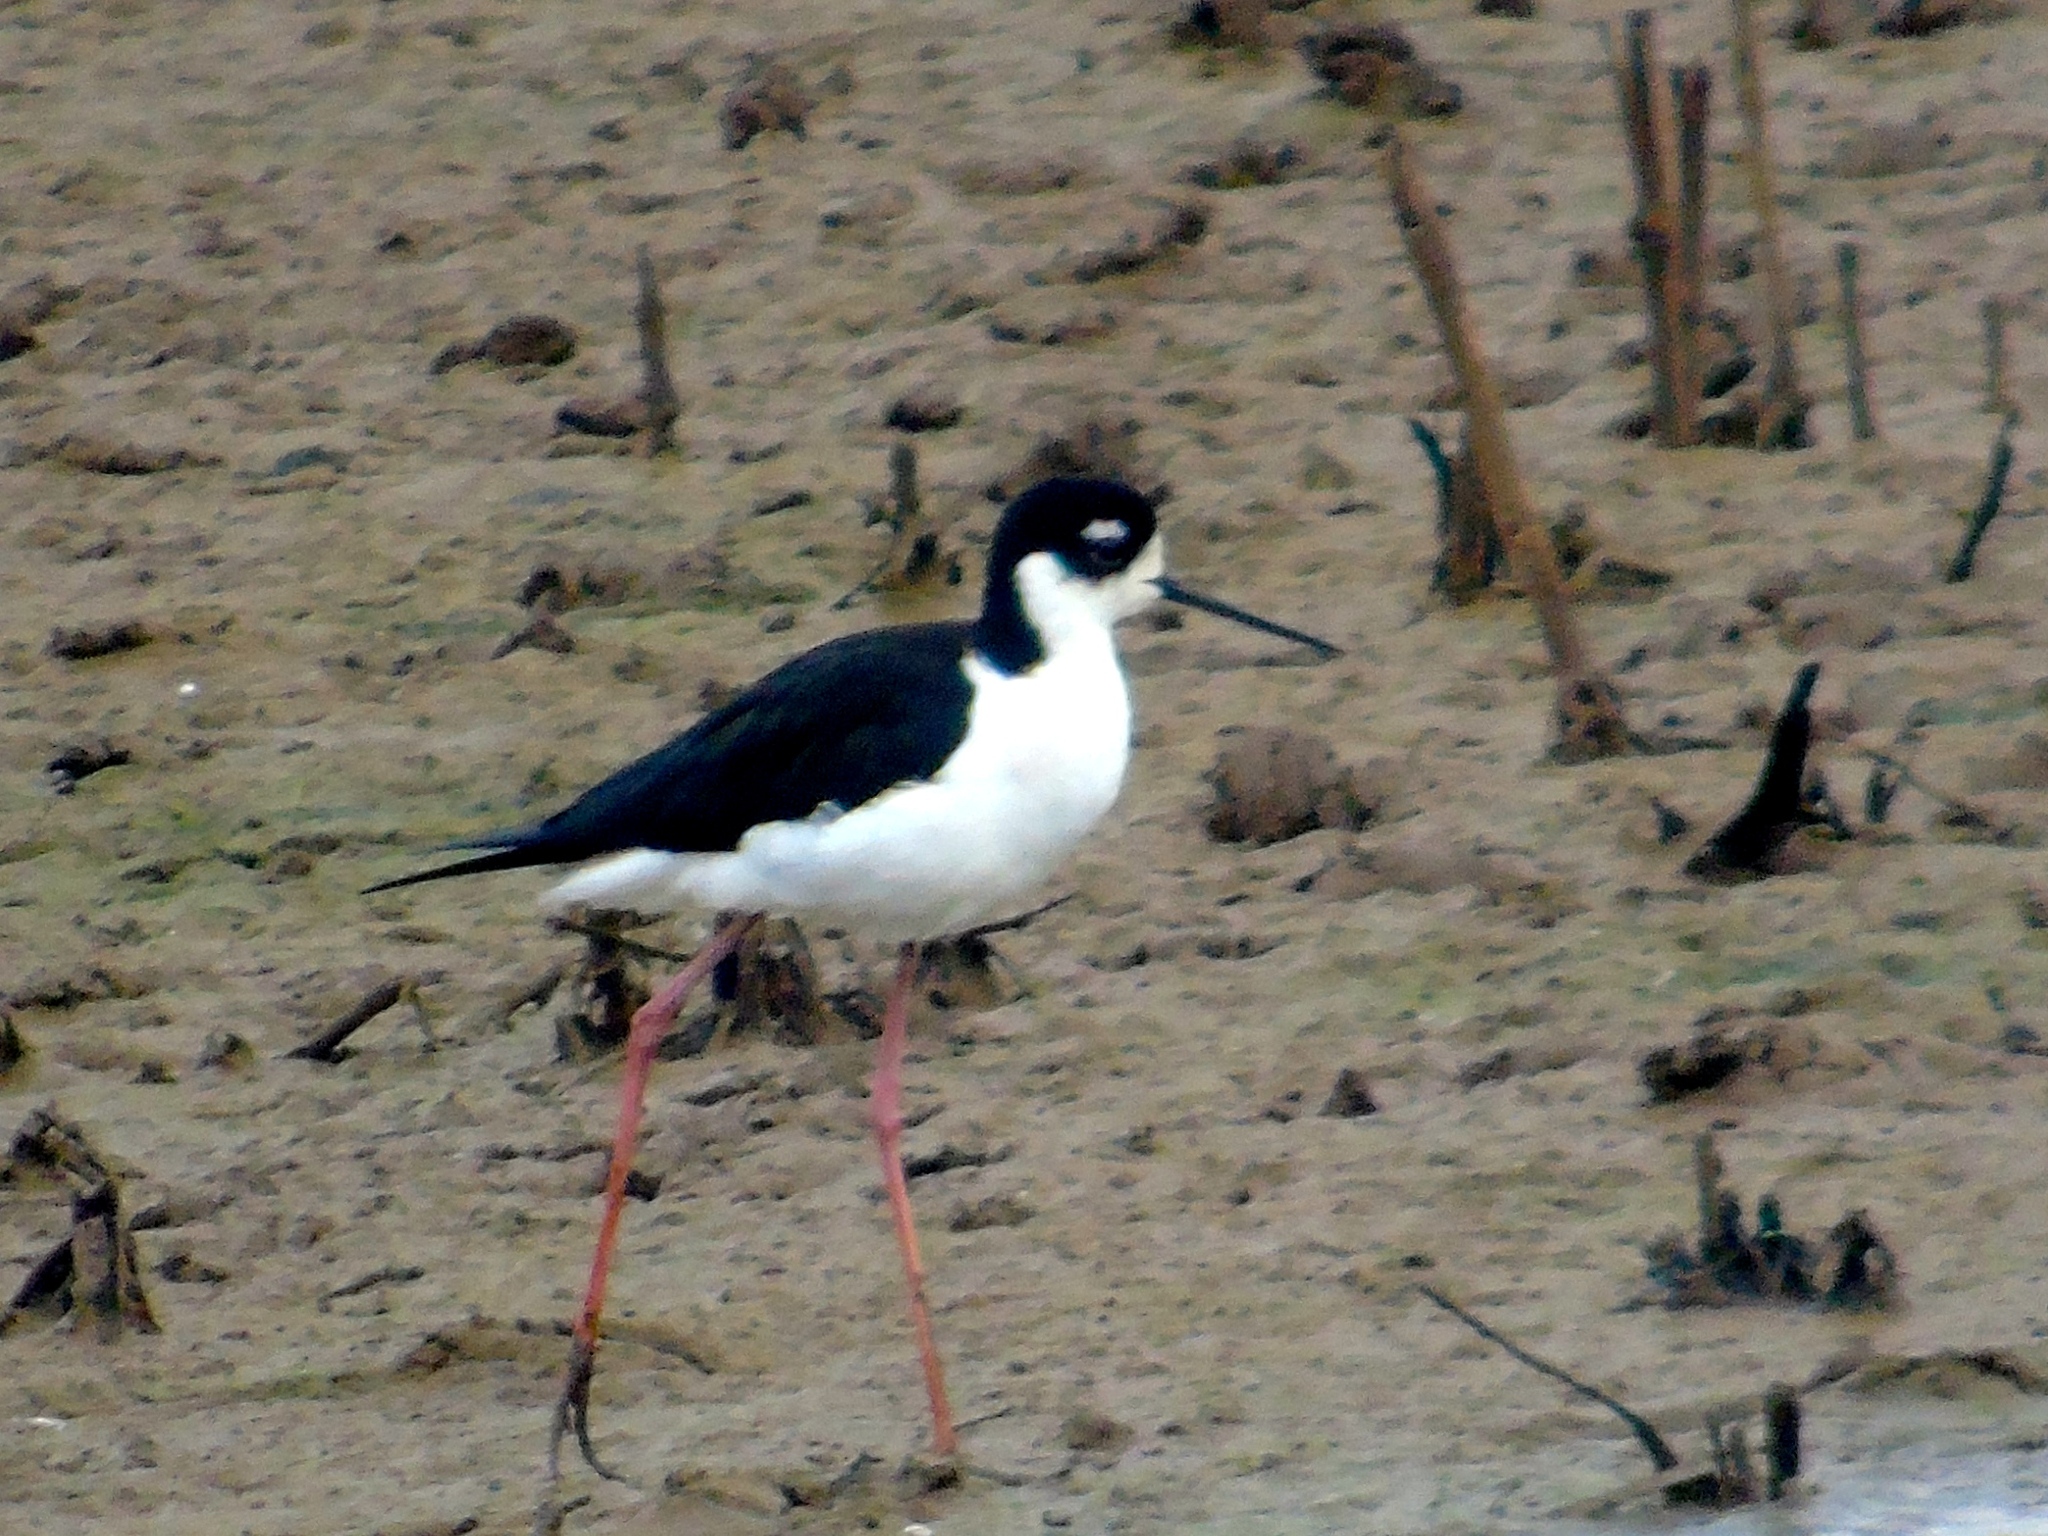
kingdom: Animalia
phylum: Chordata
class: Aves
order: Charadriiformes
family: Recurvirostridae
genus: Himantopus
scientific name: Himantopus mexicanus
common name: Black-necked stilt
